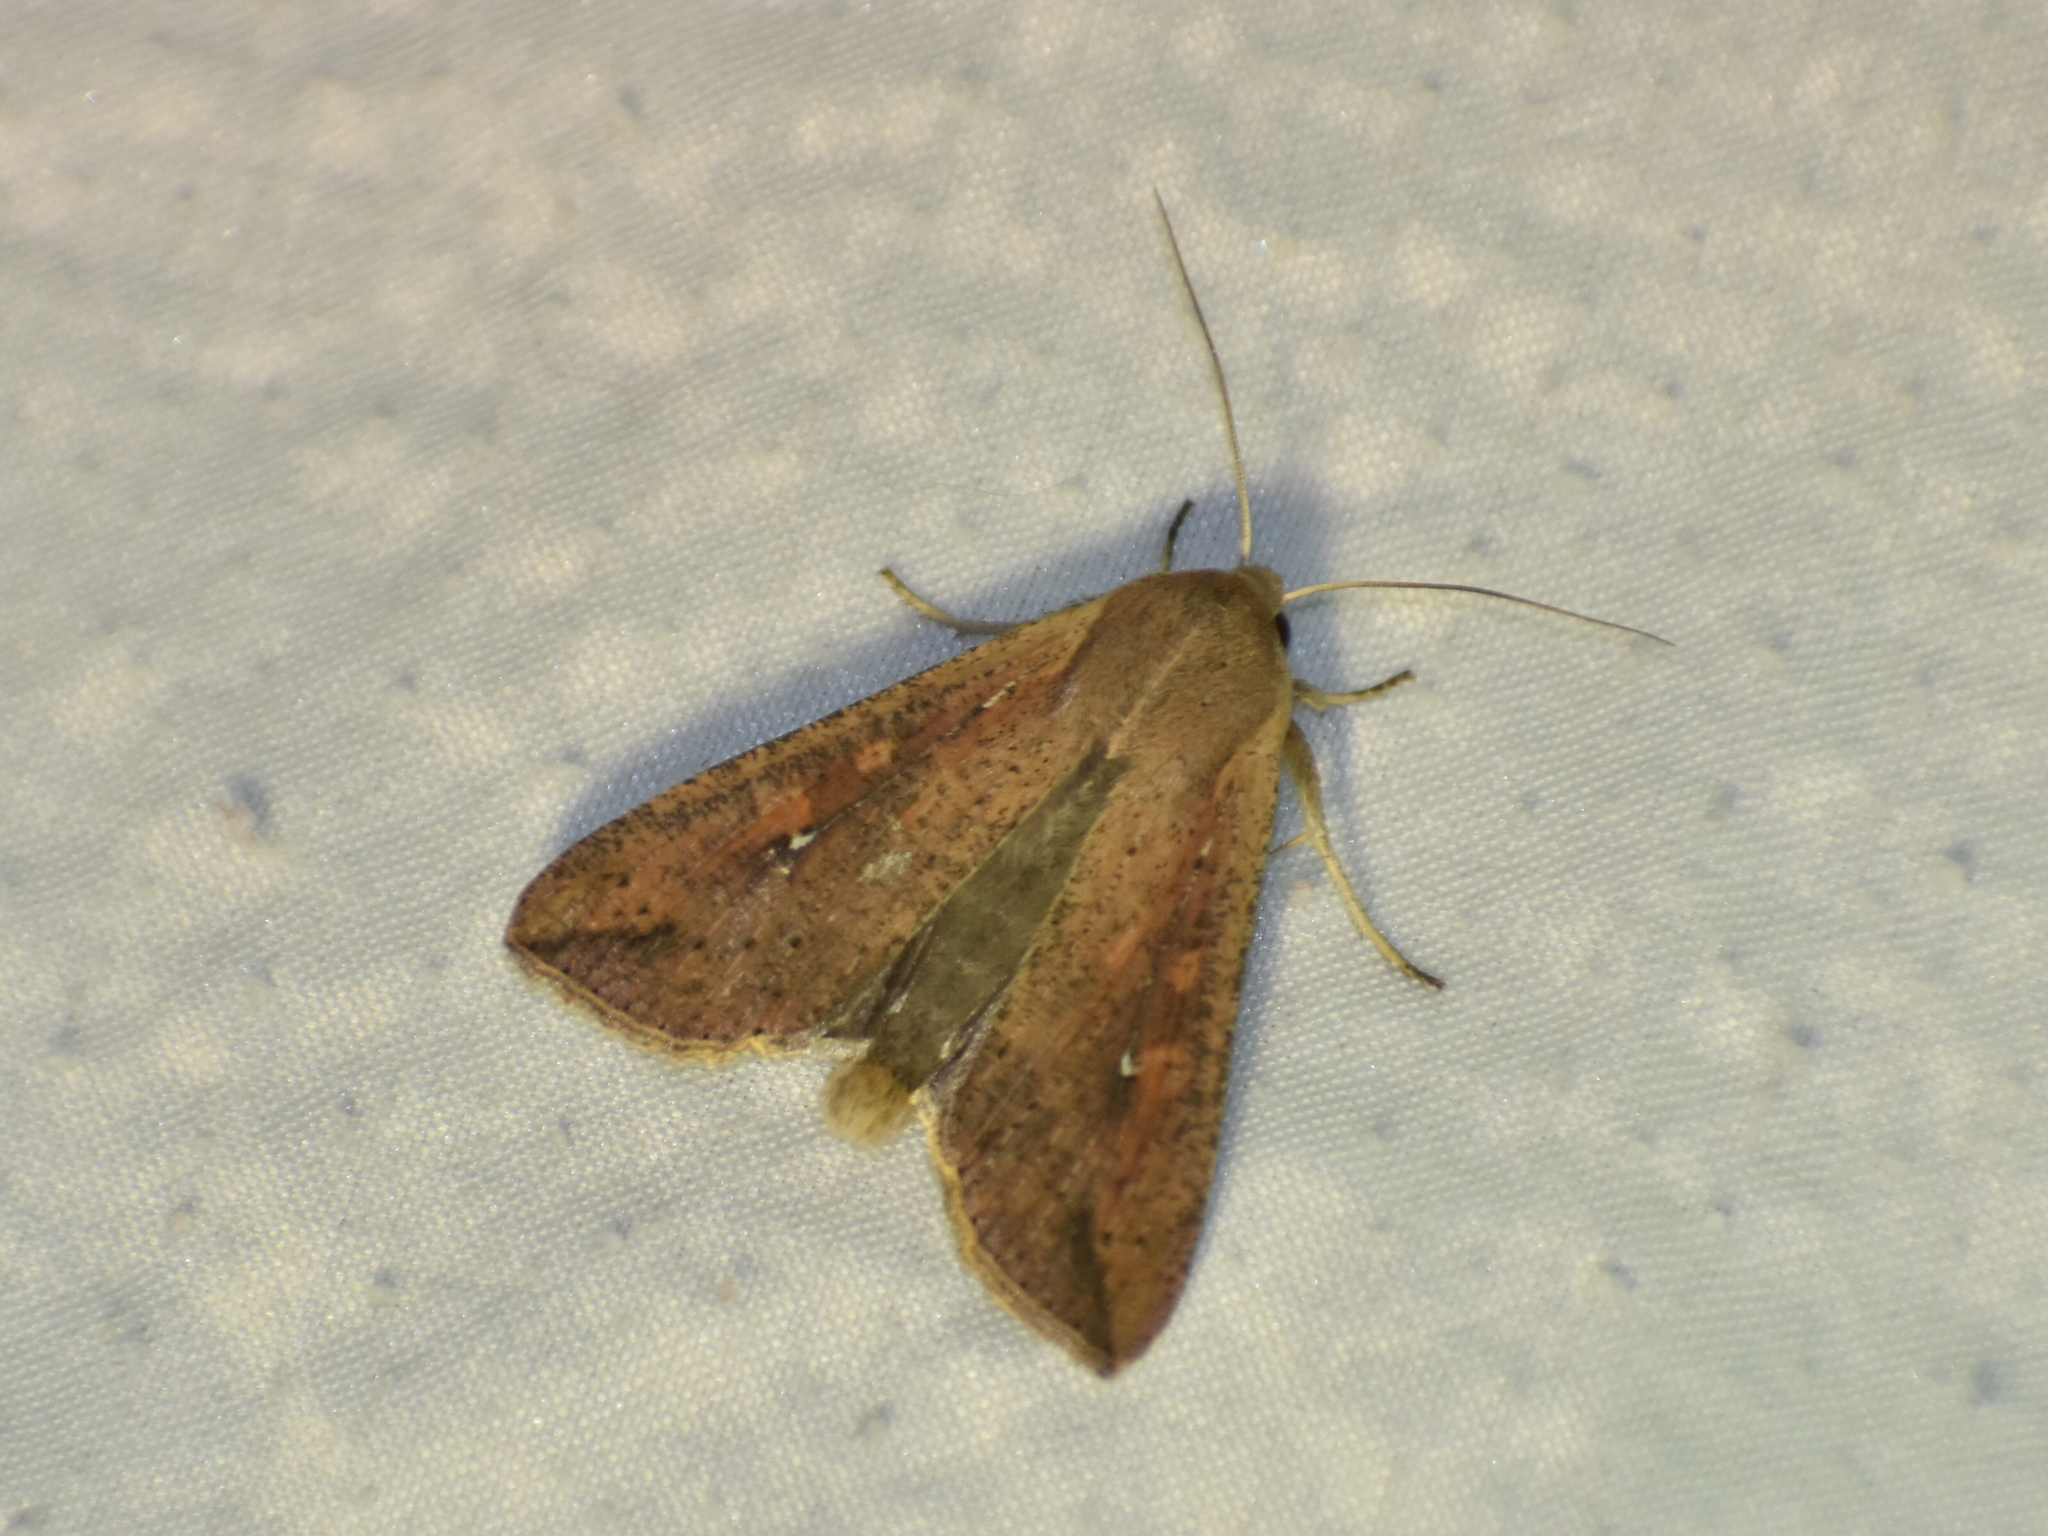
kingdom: Animalia
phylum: Arthropoda
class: Insecta
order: Lepidoptera
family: Noctuidae
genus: Mythimna
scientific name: Mythimna unipuncta
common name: White-speck
